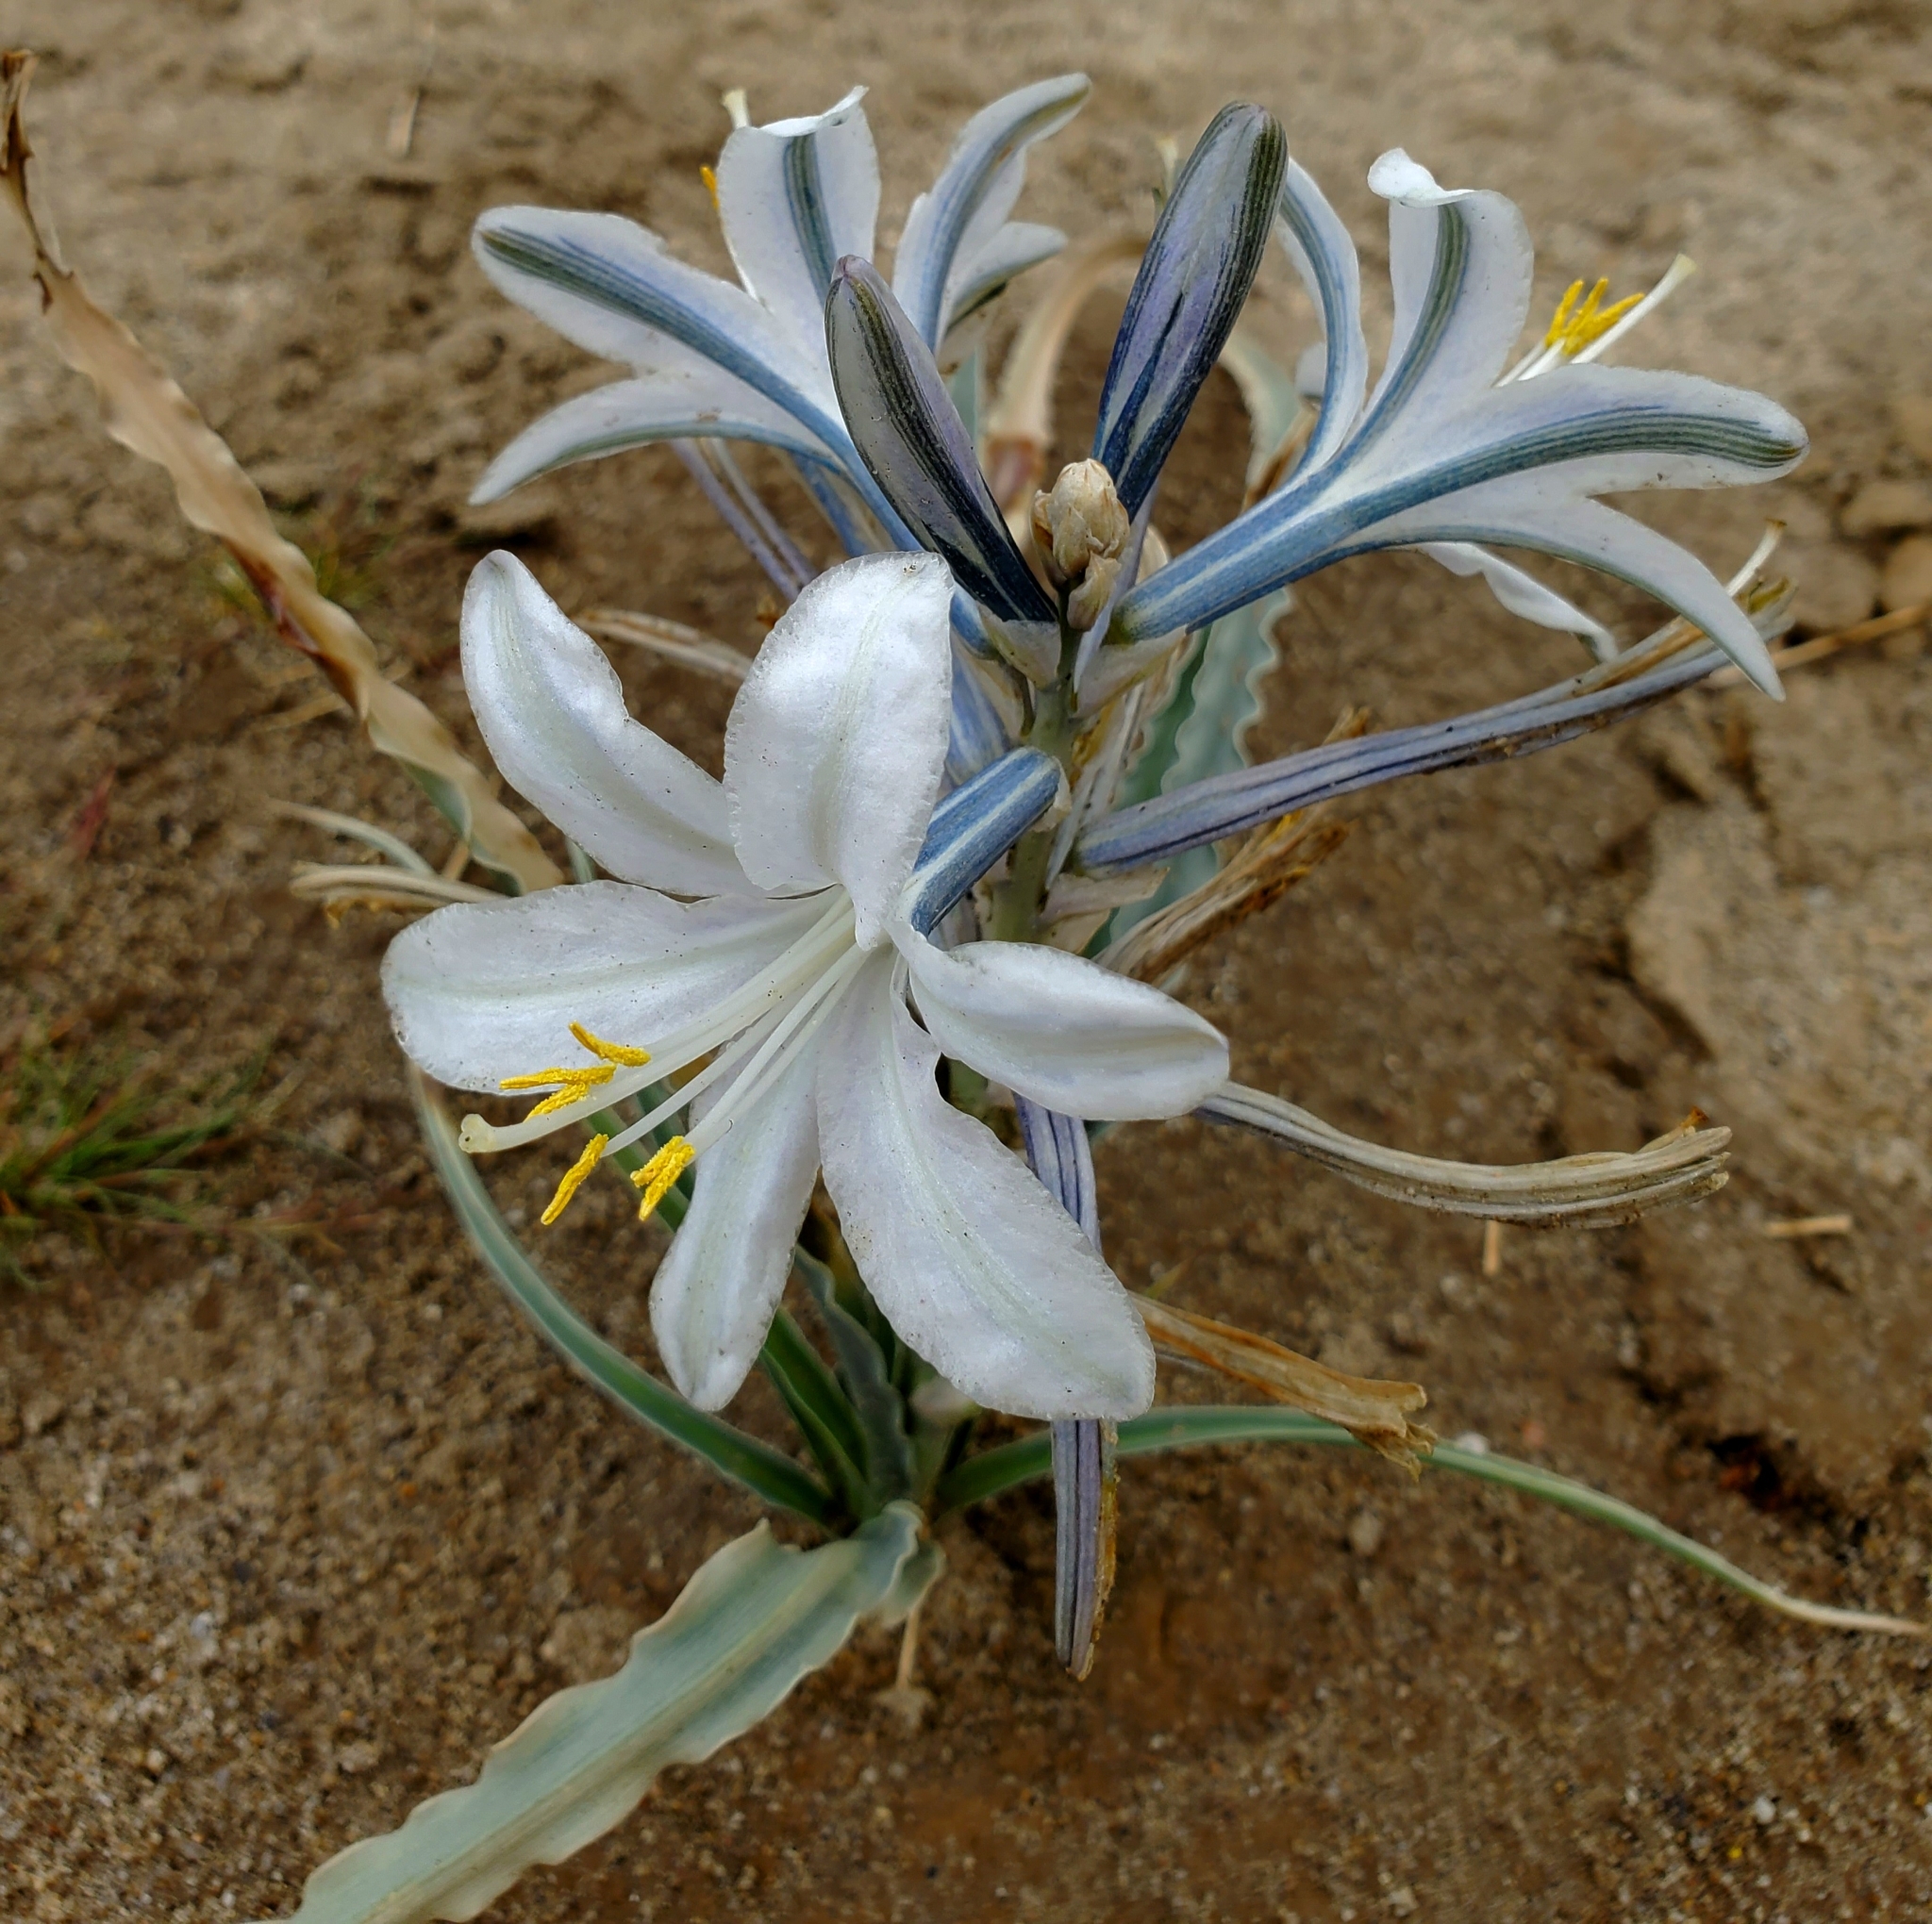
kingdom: Plantae
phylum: Tracheophyta
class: Liliopsida
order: Asparagales
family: Asparagaceae
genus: Hesperocallis
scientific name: Hesperocallis undulata
